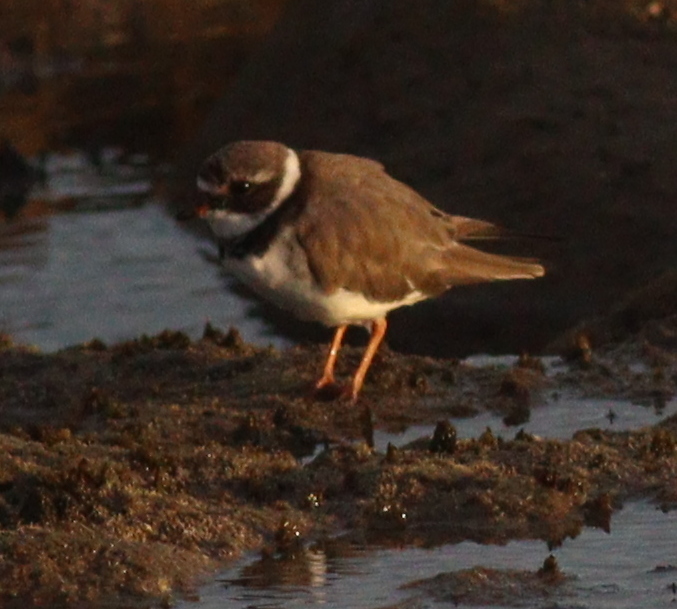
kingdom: Animalia
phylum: Chordata
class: Aves
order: Charadriiformes
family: Charadriidae
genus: Charadrius
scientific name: Charadrius hiaticula
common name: Common ringed plover
